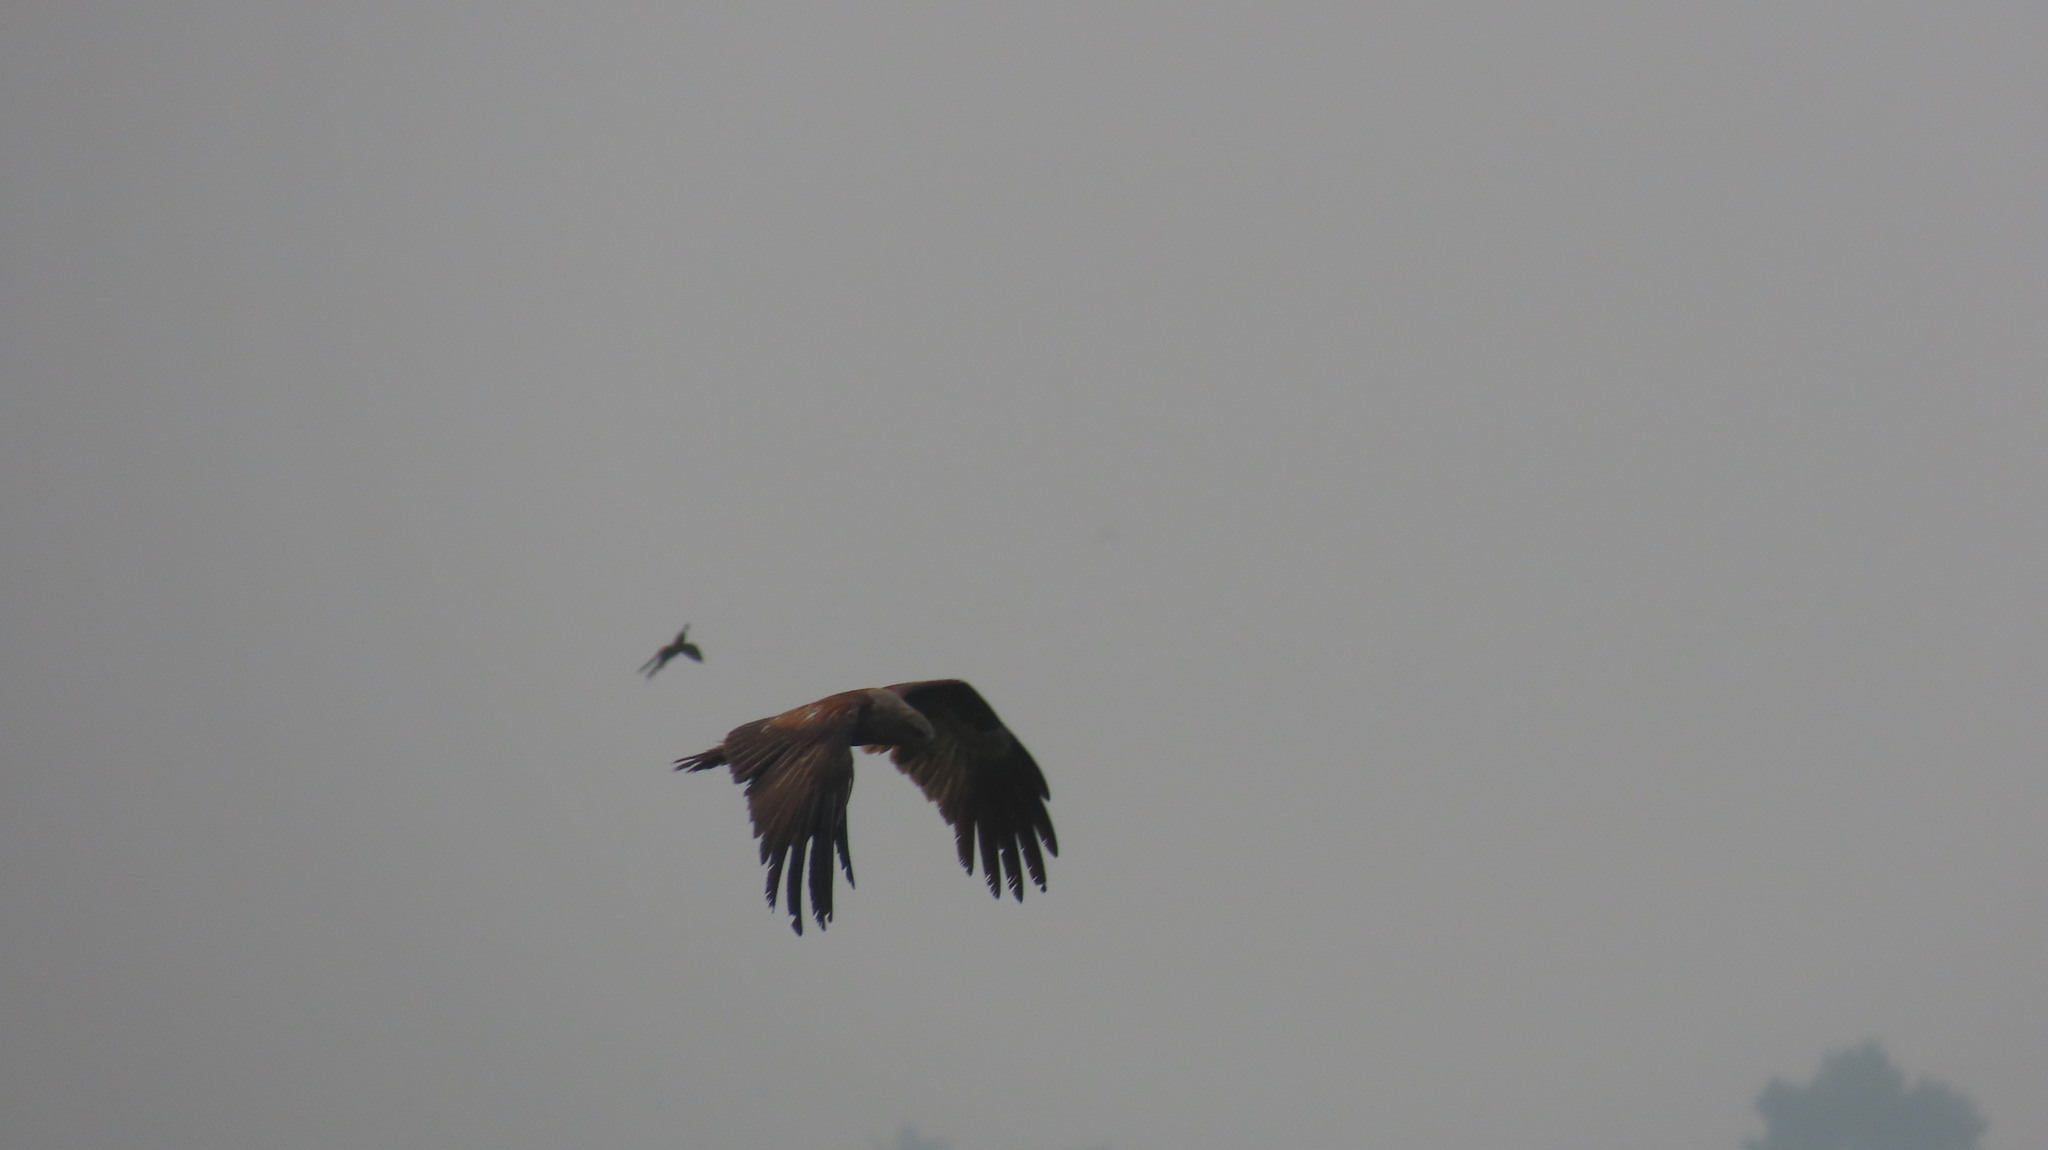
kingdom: Animalia
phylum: Chordata
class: Aves
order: Accipitriformes
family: Accipitridae
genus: Haliastur
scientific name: Haliastur indus
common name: Brahminy kite
